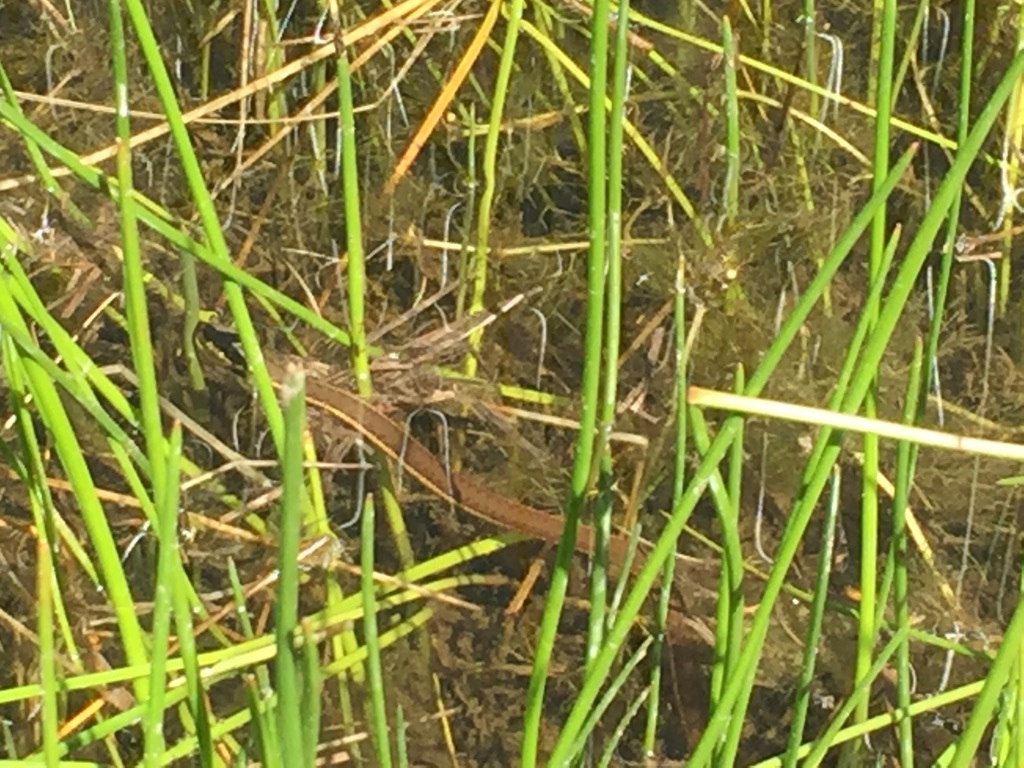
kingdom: Animalia
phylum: Chordata
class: Squamata
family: Colubridae
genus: Thamnophis
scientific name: Thamnophis hammondii
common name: Two-striped garter snake
